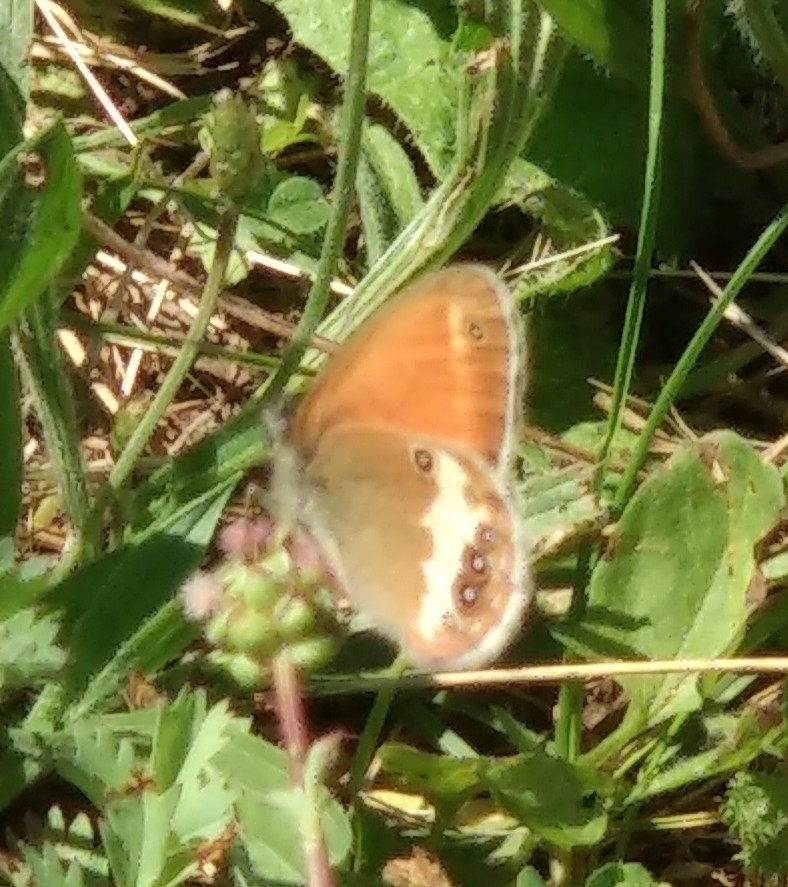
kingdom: Animalia
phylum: Arthropoda
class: Insecta
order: Lepidoptera
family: Nymphalidae
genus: Coenonympha
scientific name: Coenonympha arcania
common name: Pearly heath
